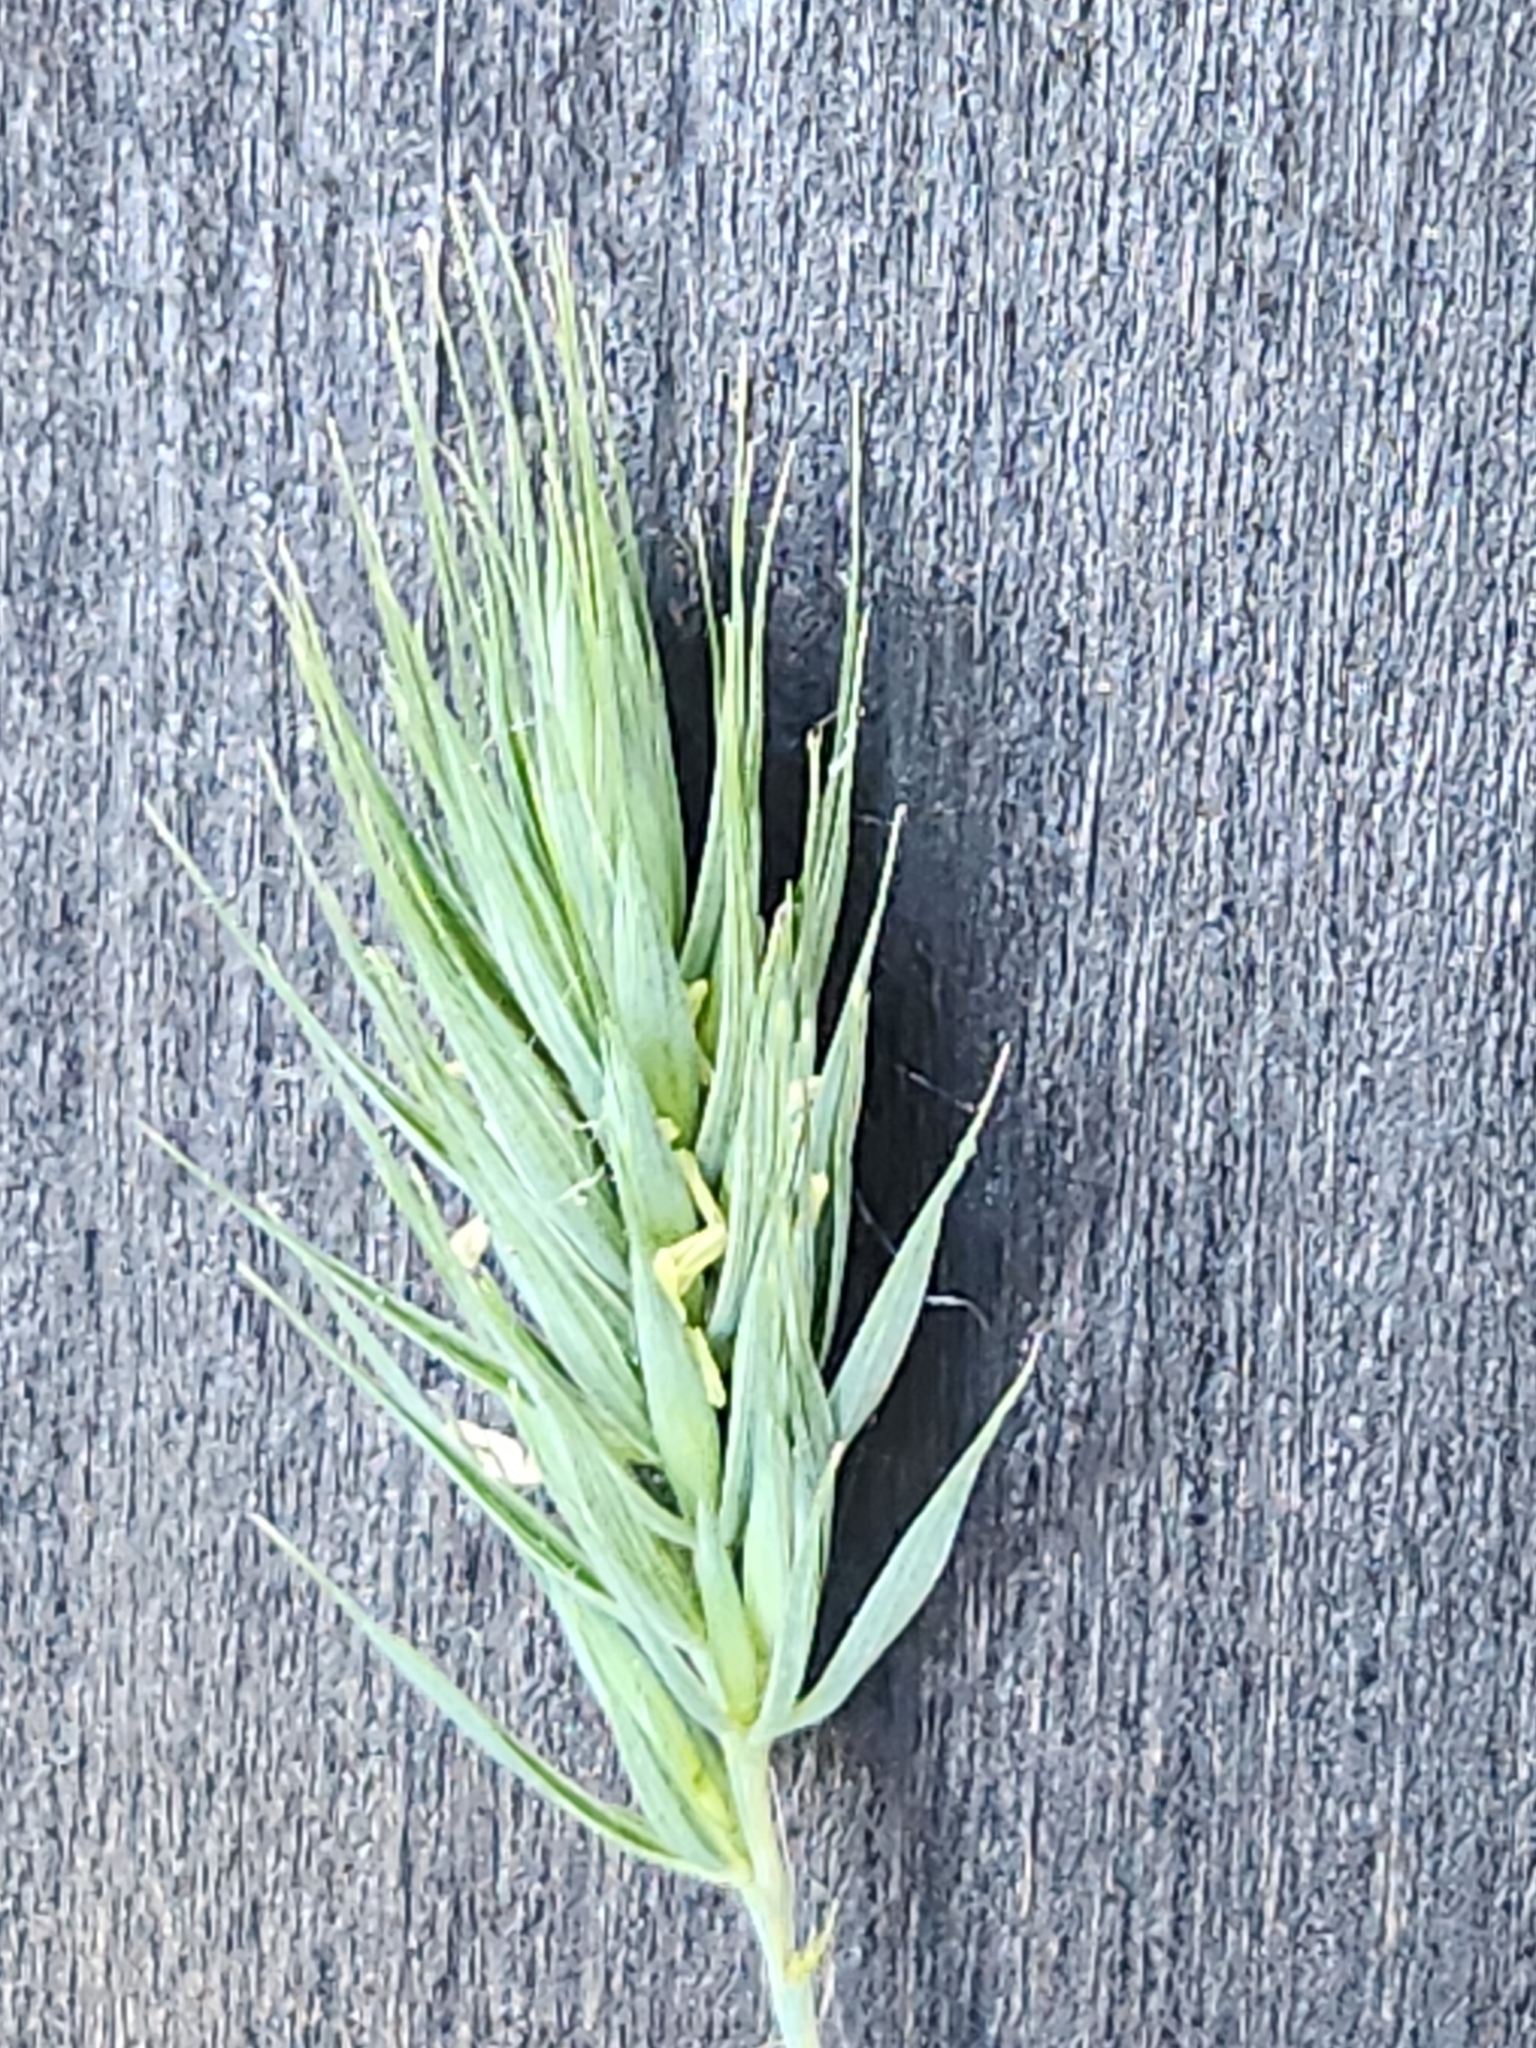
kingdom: Plantae
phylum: Tracheophyta
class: Liliopsida
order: Poales
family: Poaceae
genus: Elymus
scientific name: Elymus virginicus
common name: Common eastern wildrye
